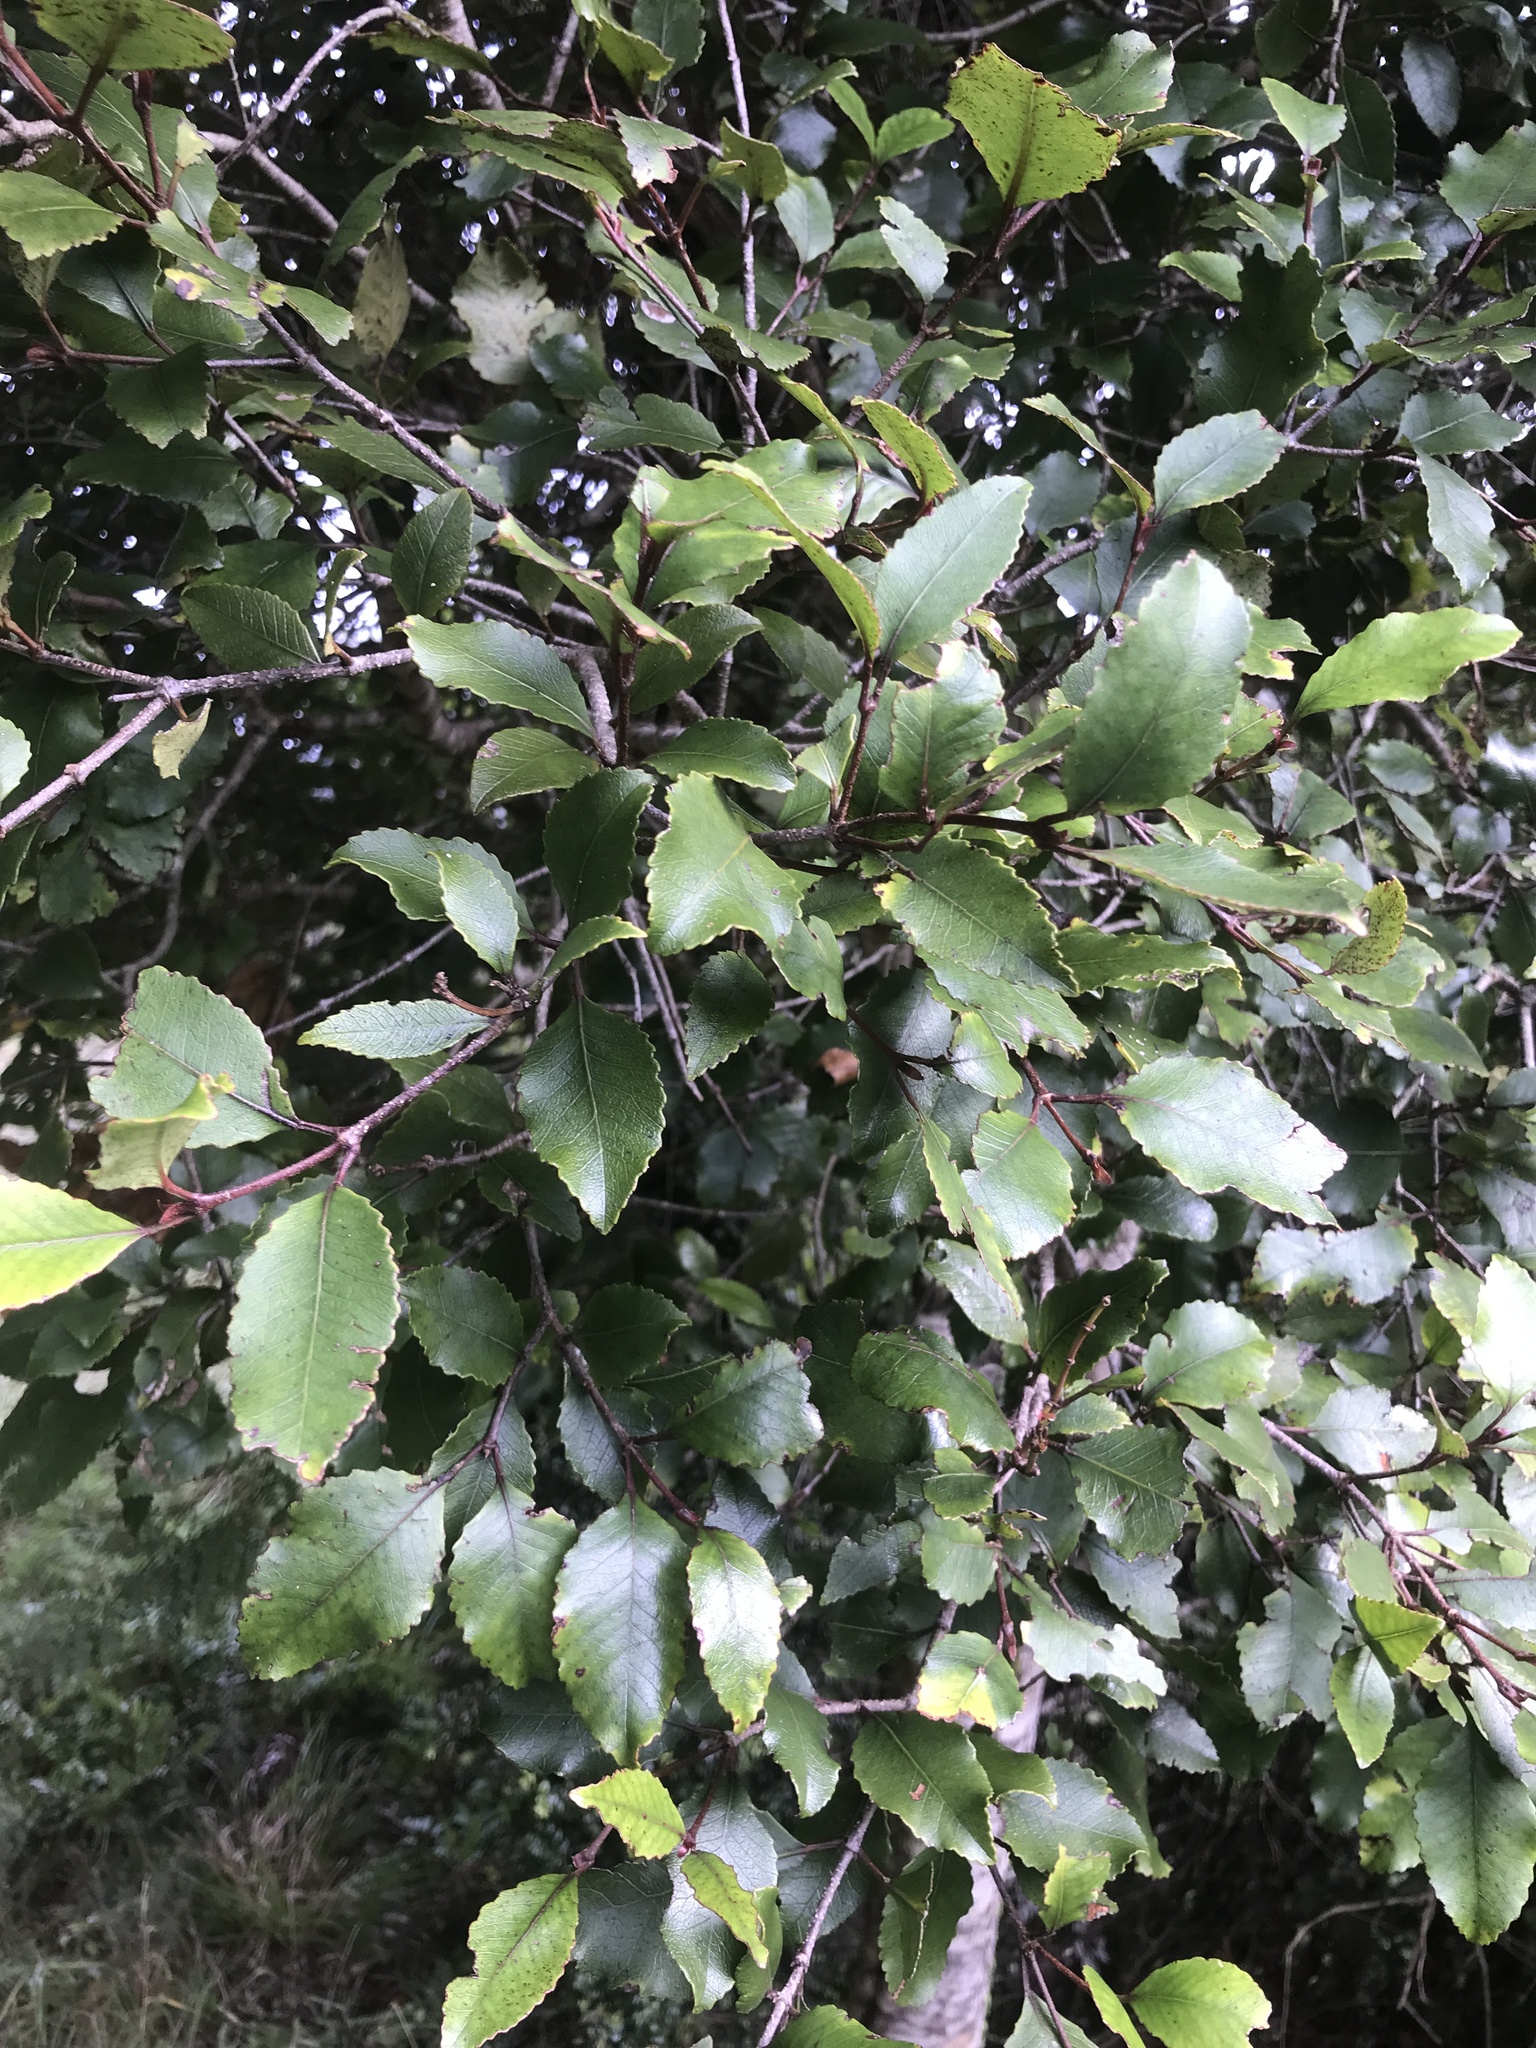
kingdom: Plantae
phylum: Tracheophyta
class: Magnoliopsida
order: Oxalidales
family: Cunoniaceae
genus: Pterophylla
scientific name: Pterophylla racemosa
